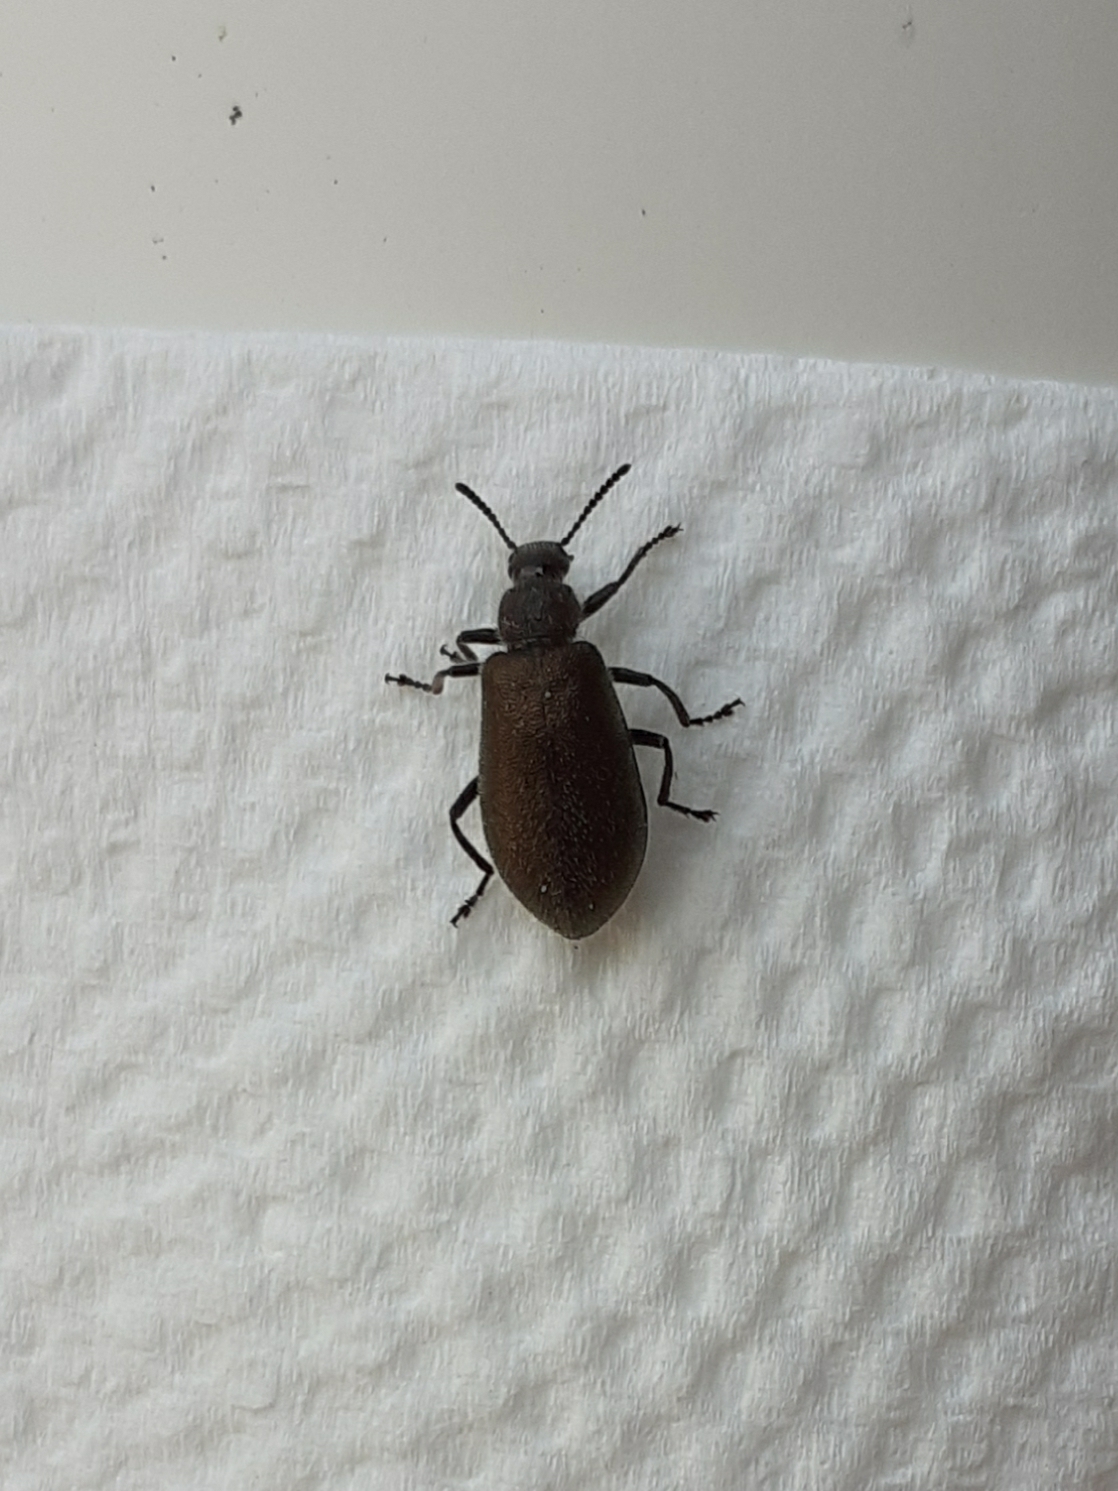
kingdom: Animalia
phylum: Arthropoda
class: Insecta
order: Coleoptera
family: Tenebrionidae
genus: Lagria
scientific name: Lagria villosa
